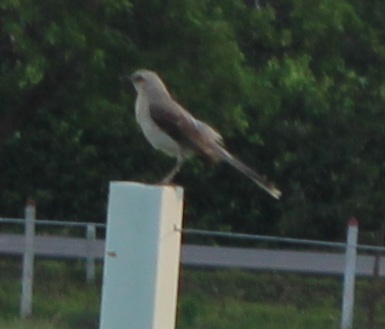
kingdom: Animalia
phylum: Chordata
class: Aves
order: Passeriformes
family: Mimidae
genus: Mimus
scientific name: Mimus gilvus
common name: Tropical mockingbird
